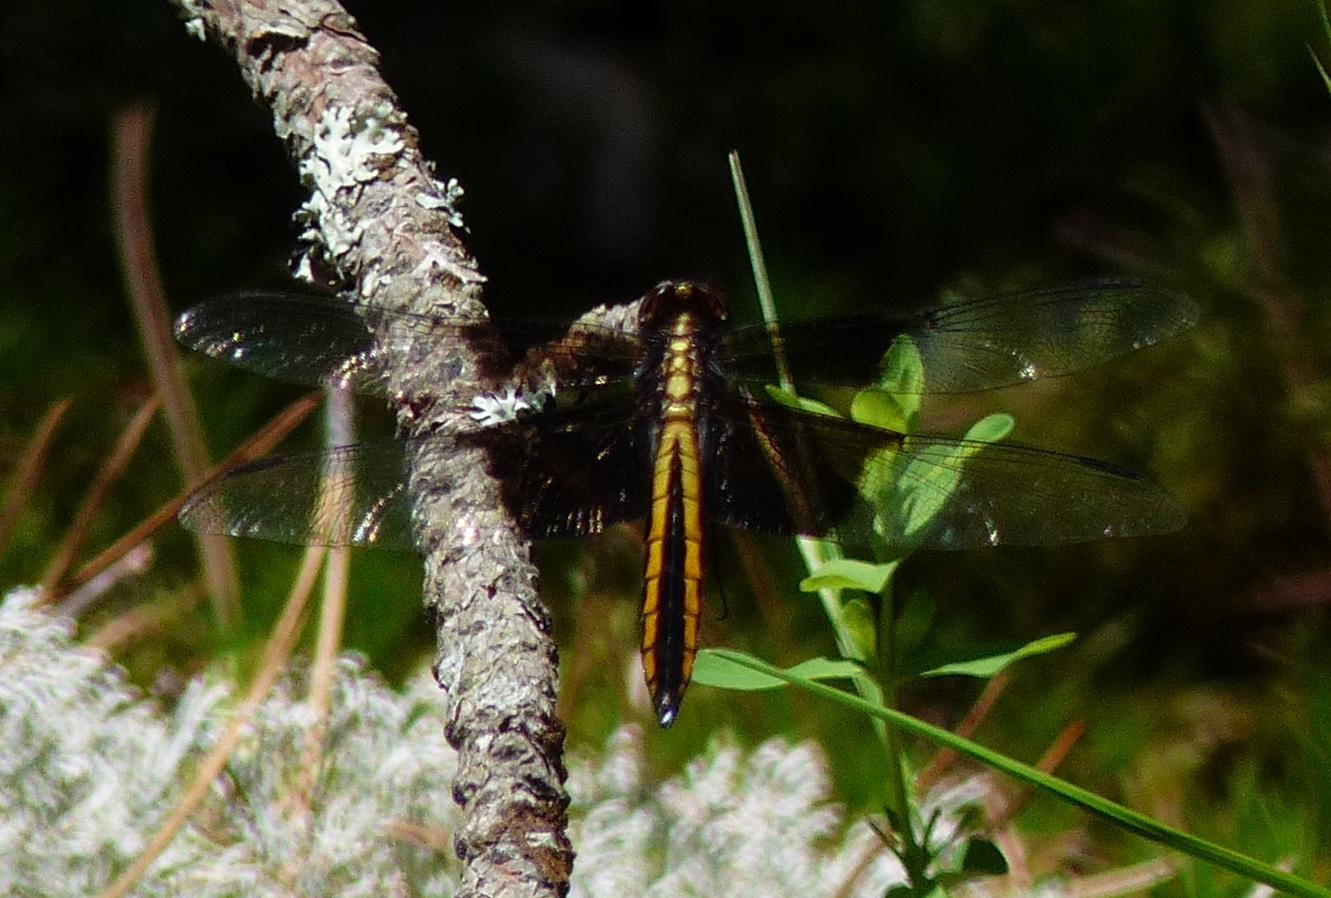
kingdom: Animalia
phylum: Arthropoda
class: Insecta
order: Odonata
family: Libellulidae
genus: Libellula
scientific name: Libellula luctuosa
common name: Widow skimmer
